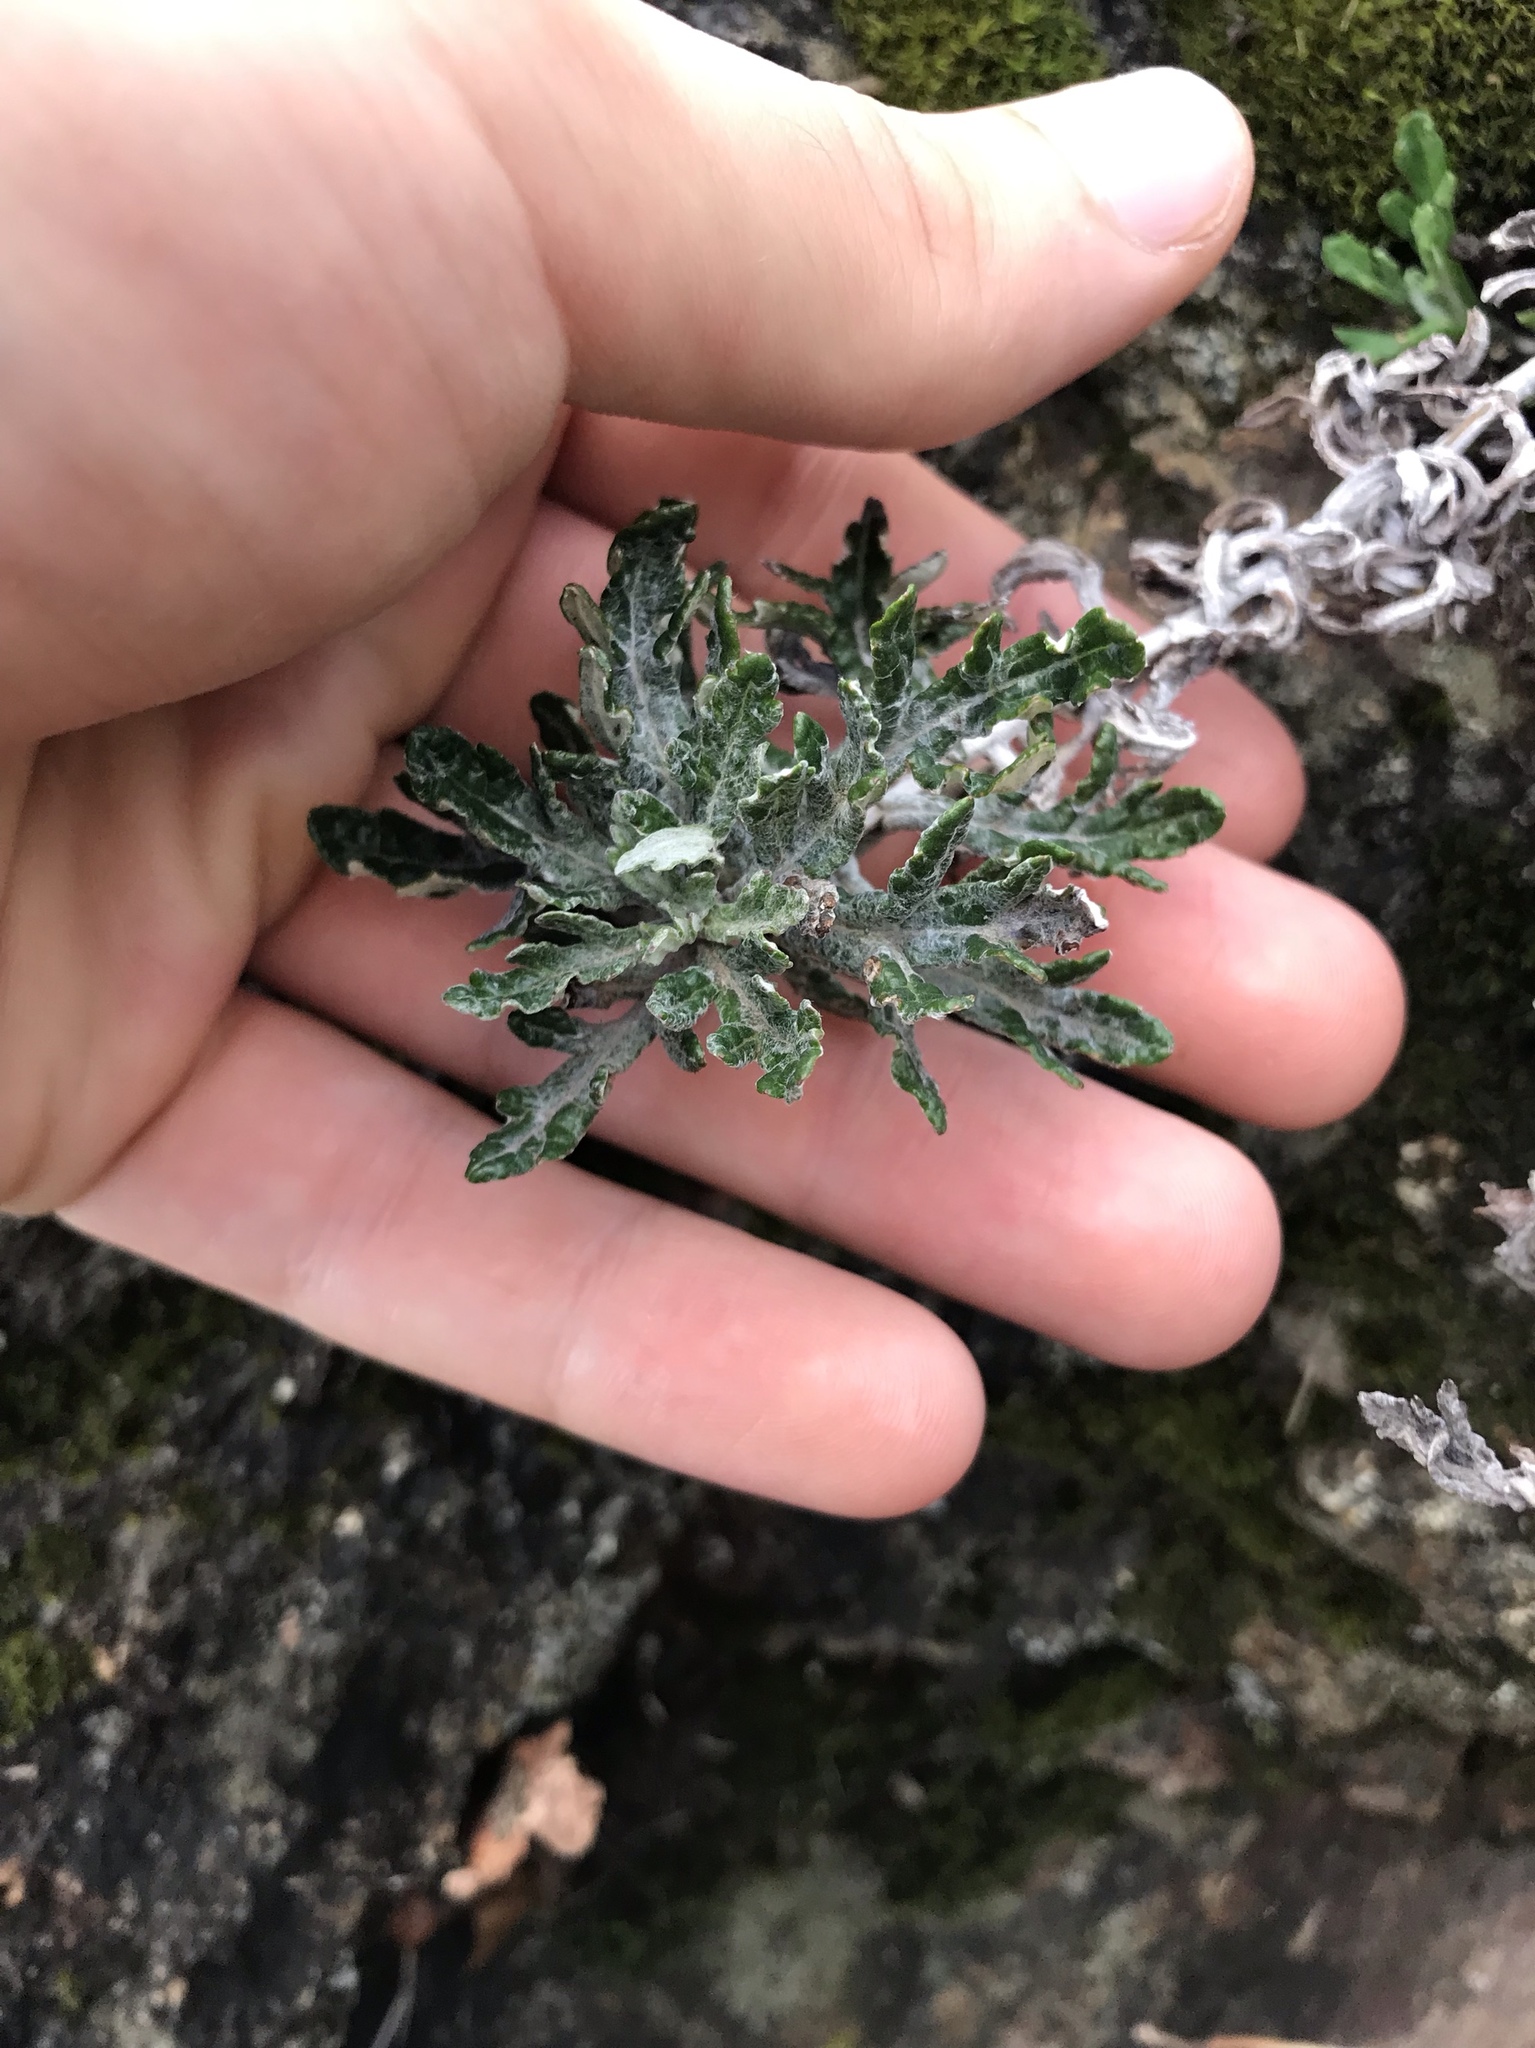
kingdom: Plantae
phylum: Tracheophyta
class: Magnoliopsida
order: Asterales
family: Asteraceae
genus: Eriophyllum
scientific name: Eriophyllum lanatum
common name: Common woolly-sunflower
